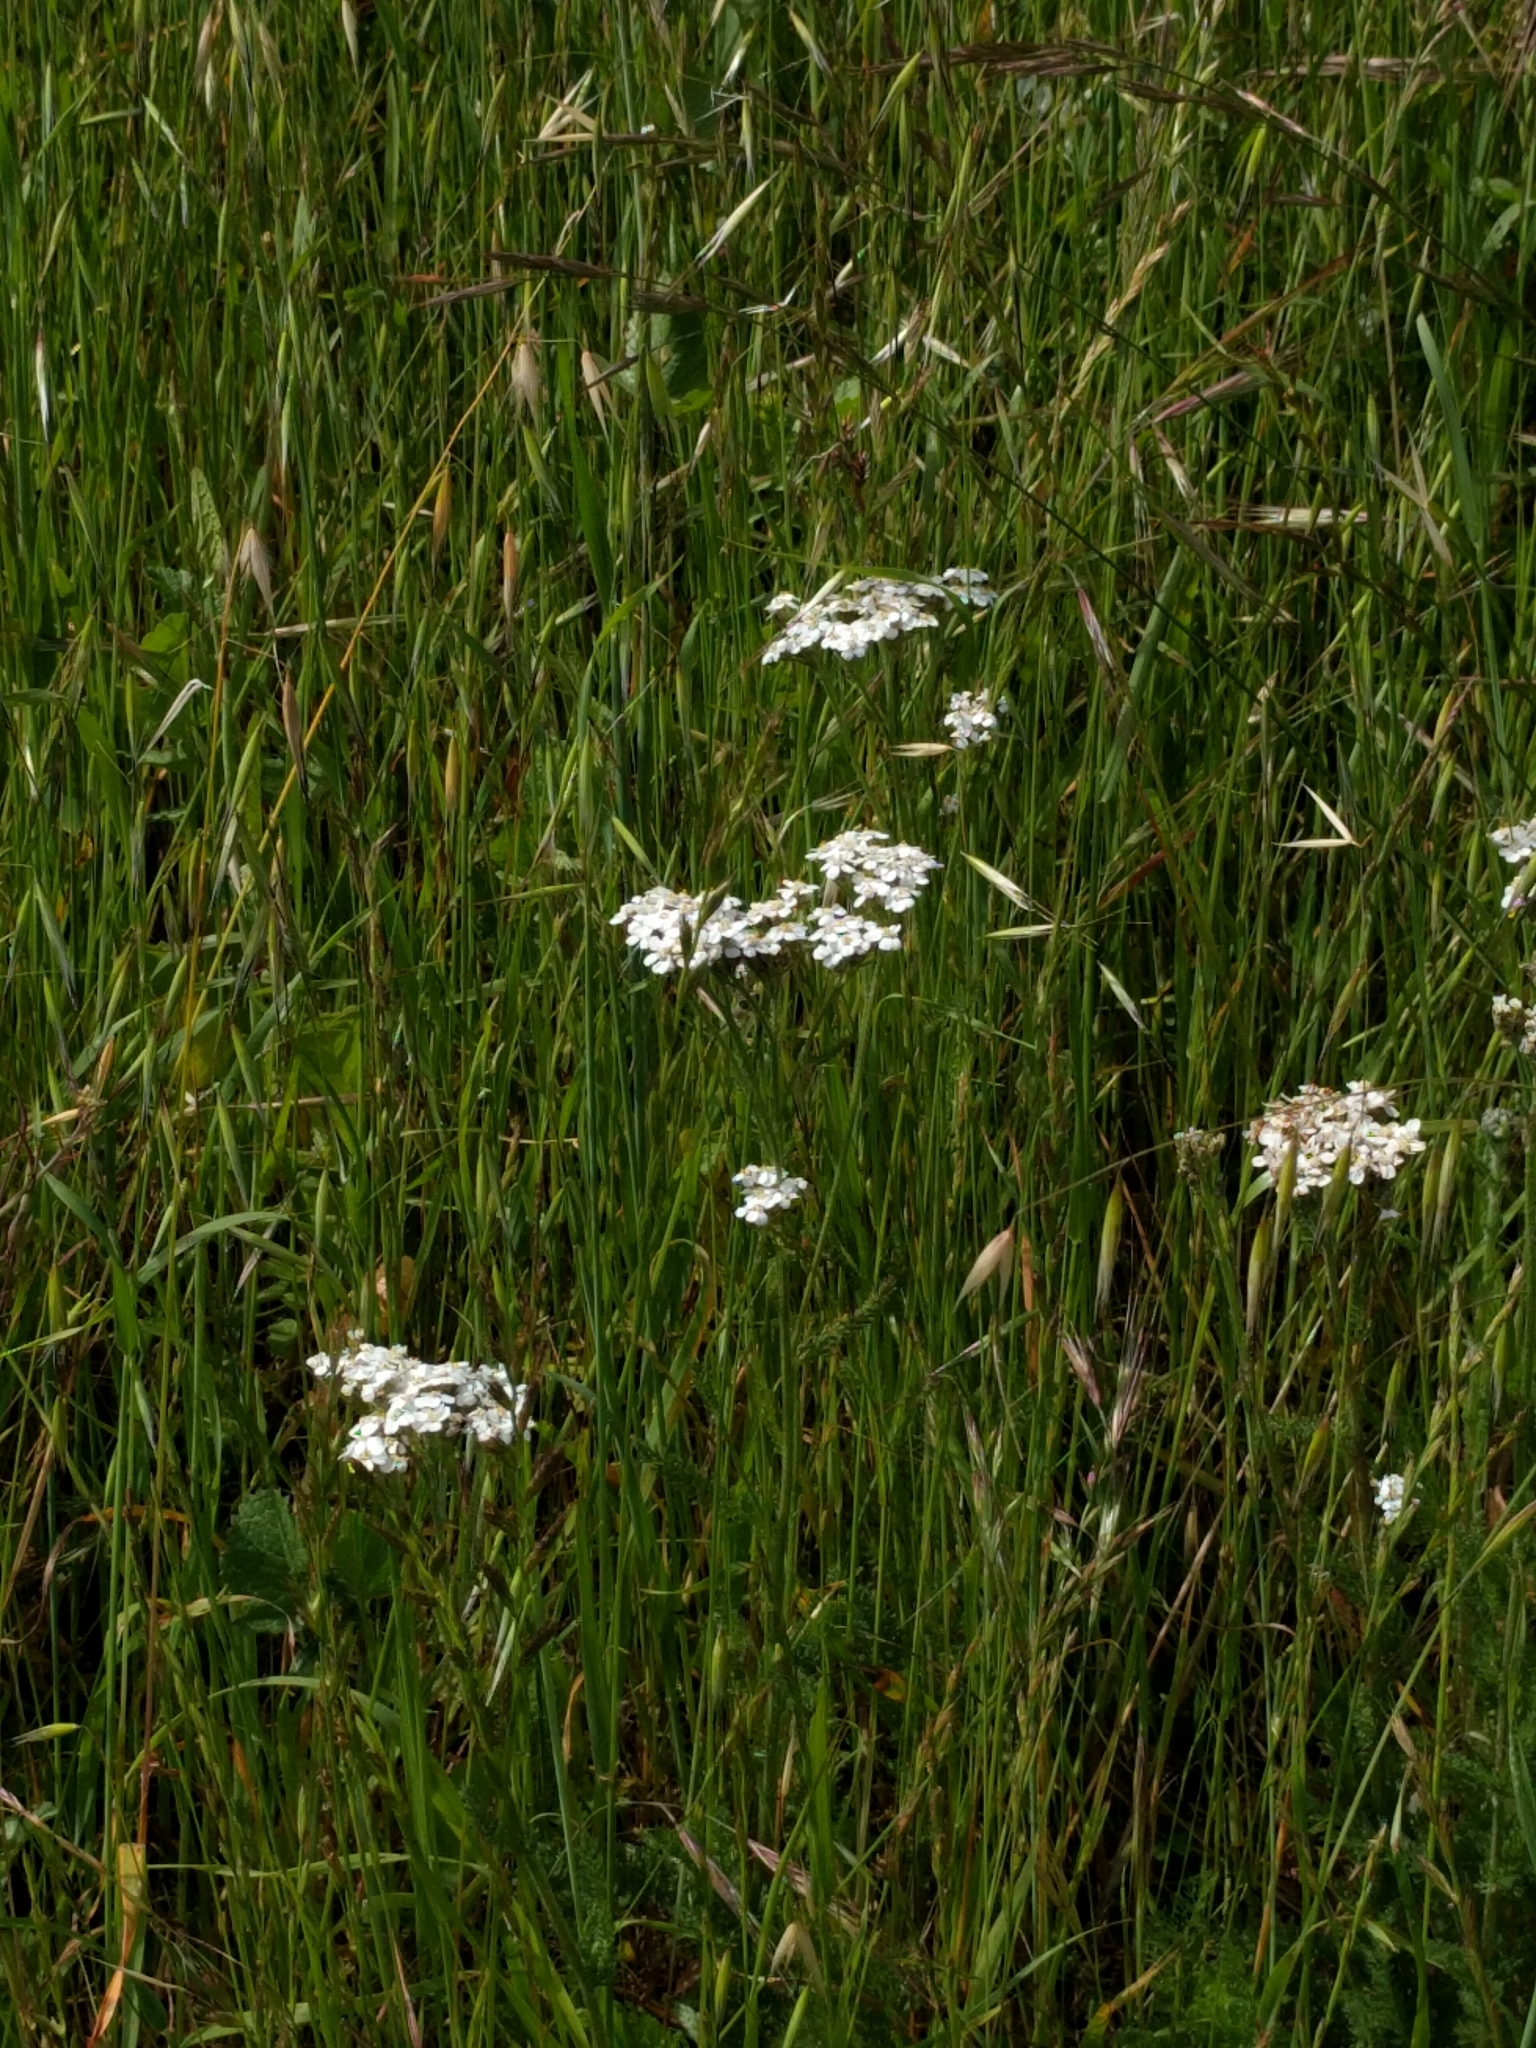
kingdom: Plantae
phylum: Tracheophyta
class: Magnoliopsida
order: Asterales
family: Asteraceae
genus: Achillea
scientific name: Achillea millefolium
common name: Yarrow
